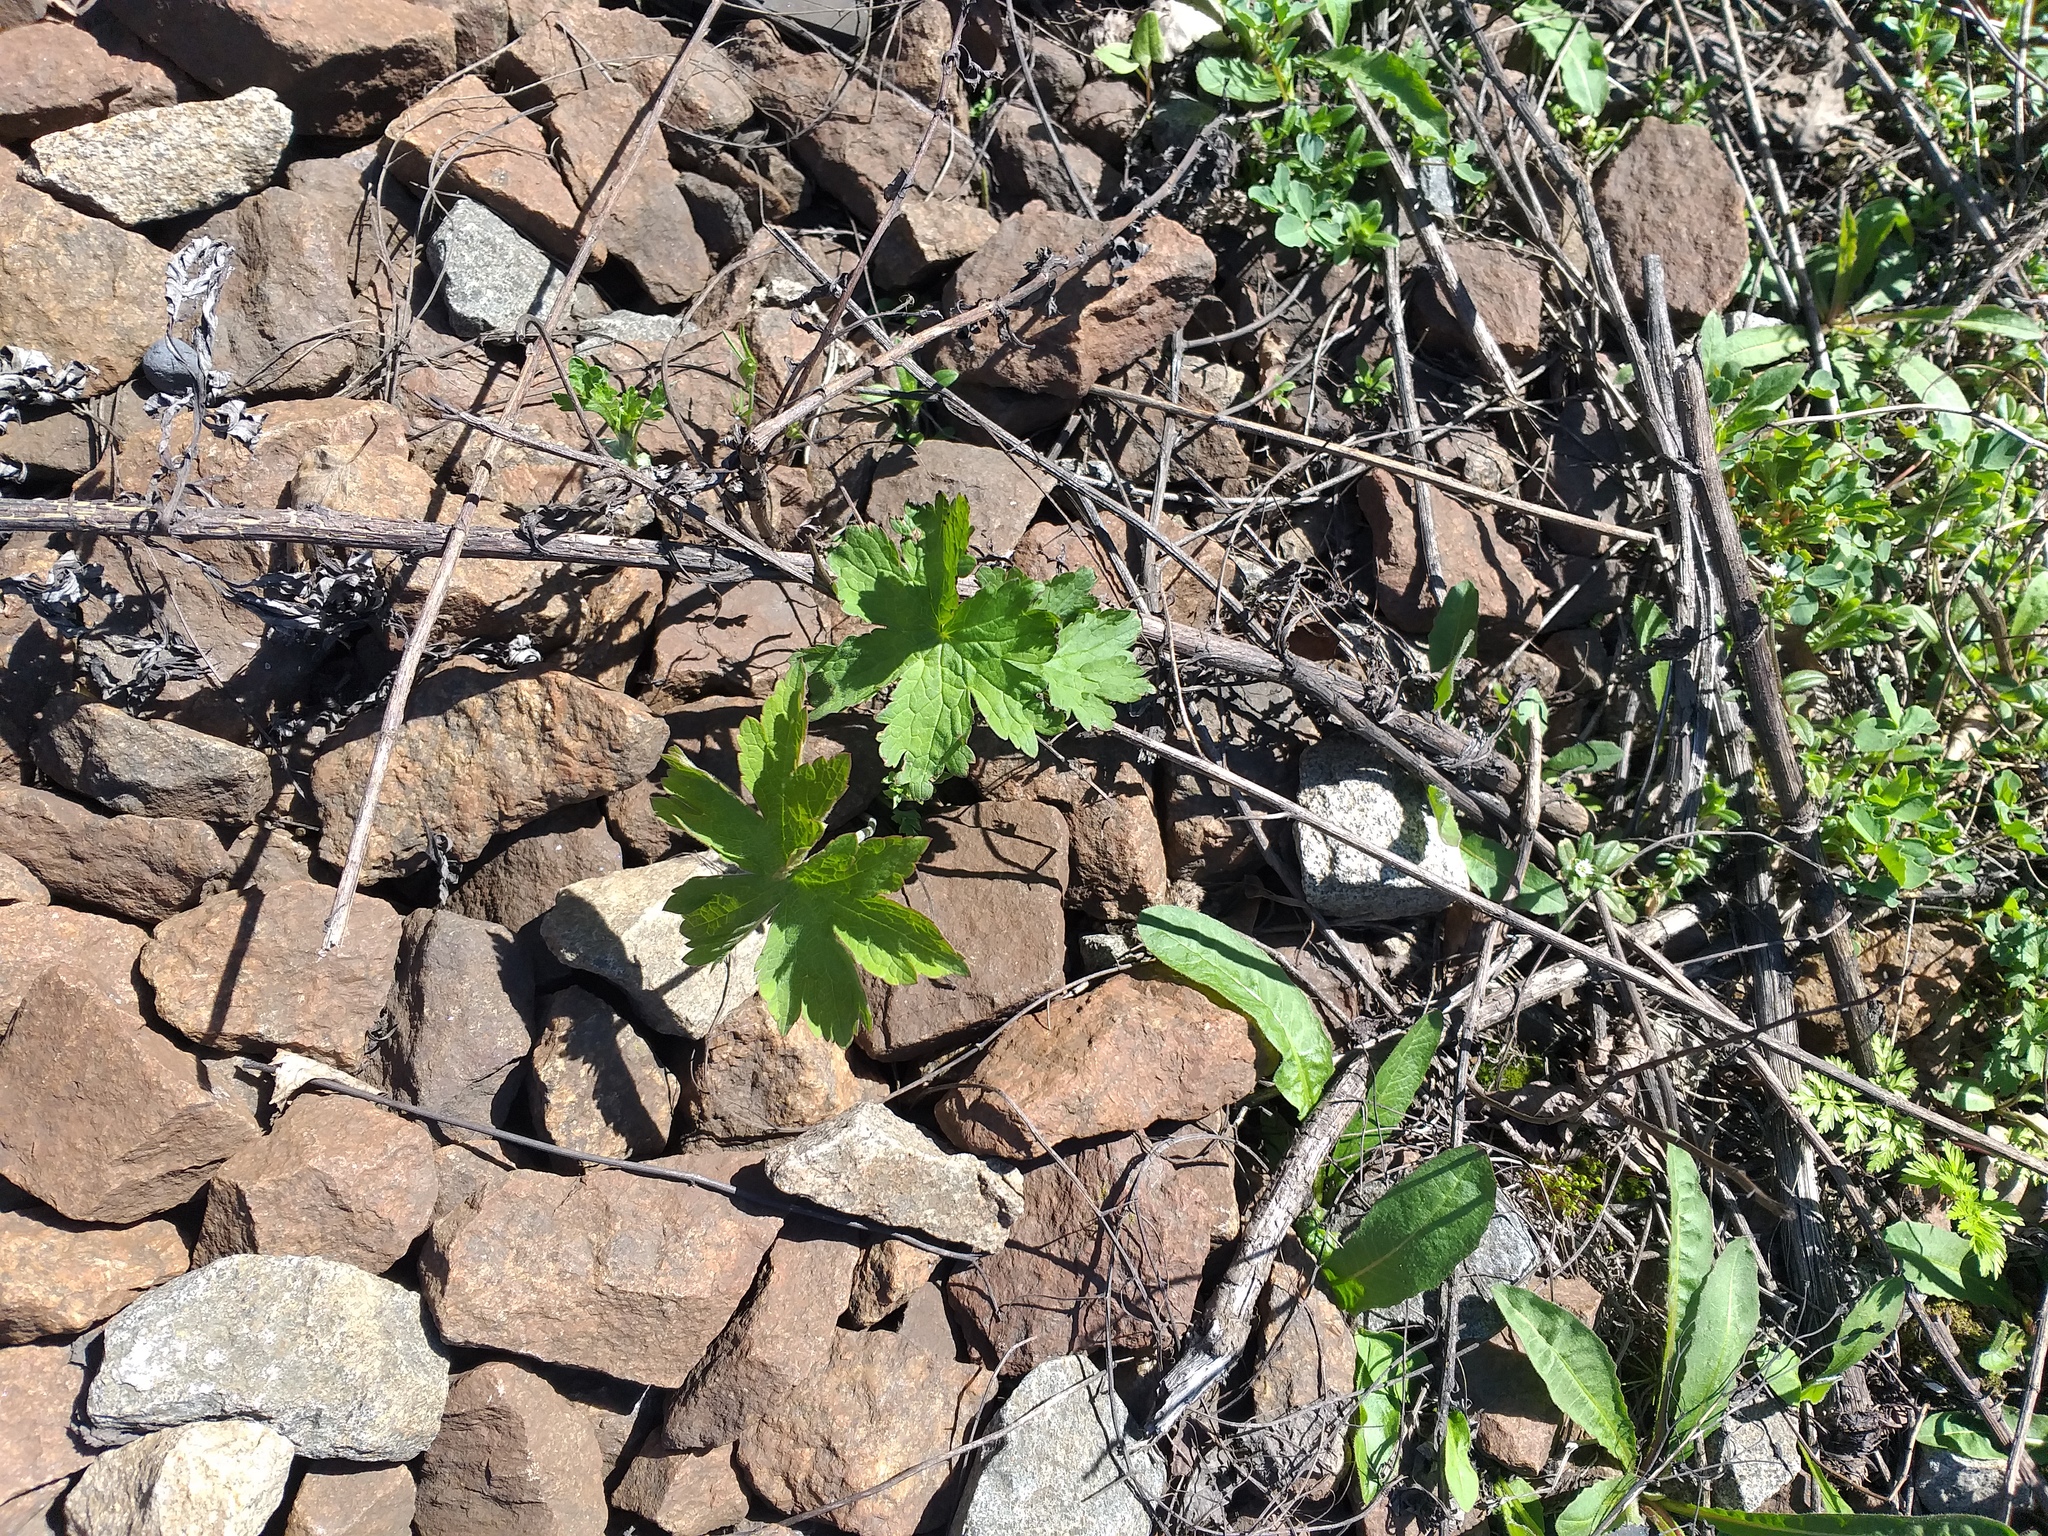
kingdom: Plantae
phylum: Tracheophyta
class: Magnoliopsida
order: Geraniales
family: Geraniaceae
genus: Geranium
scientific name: Geranium sylvaticum
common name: Wood crane's-bill
